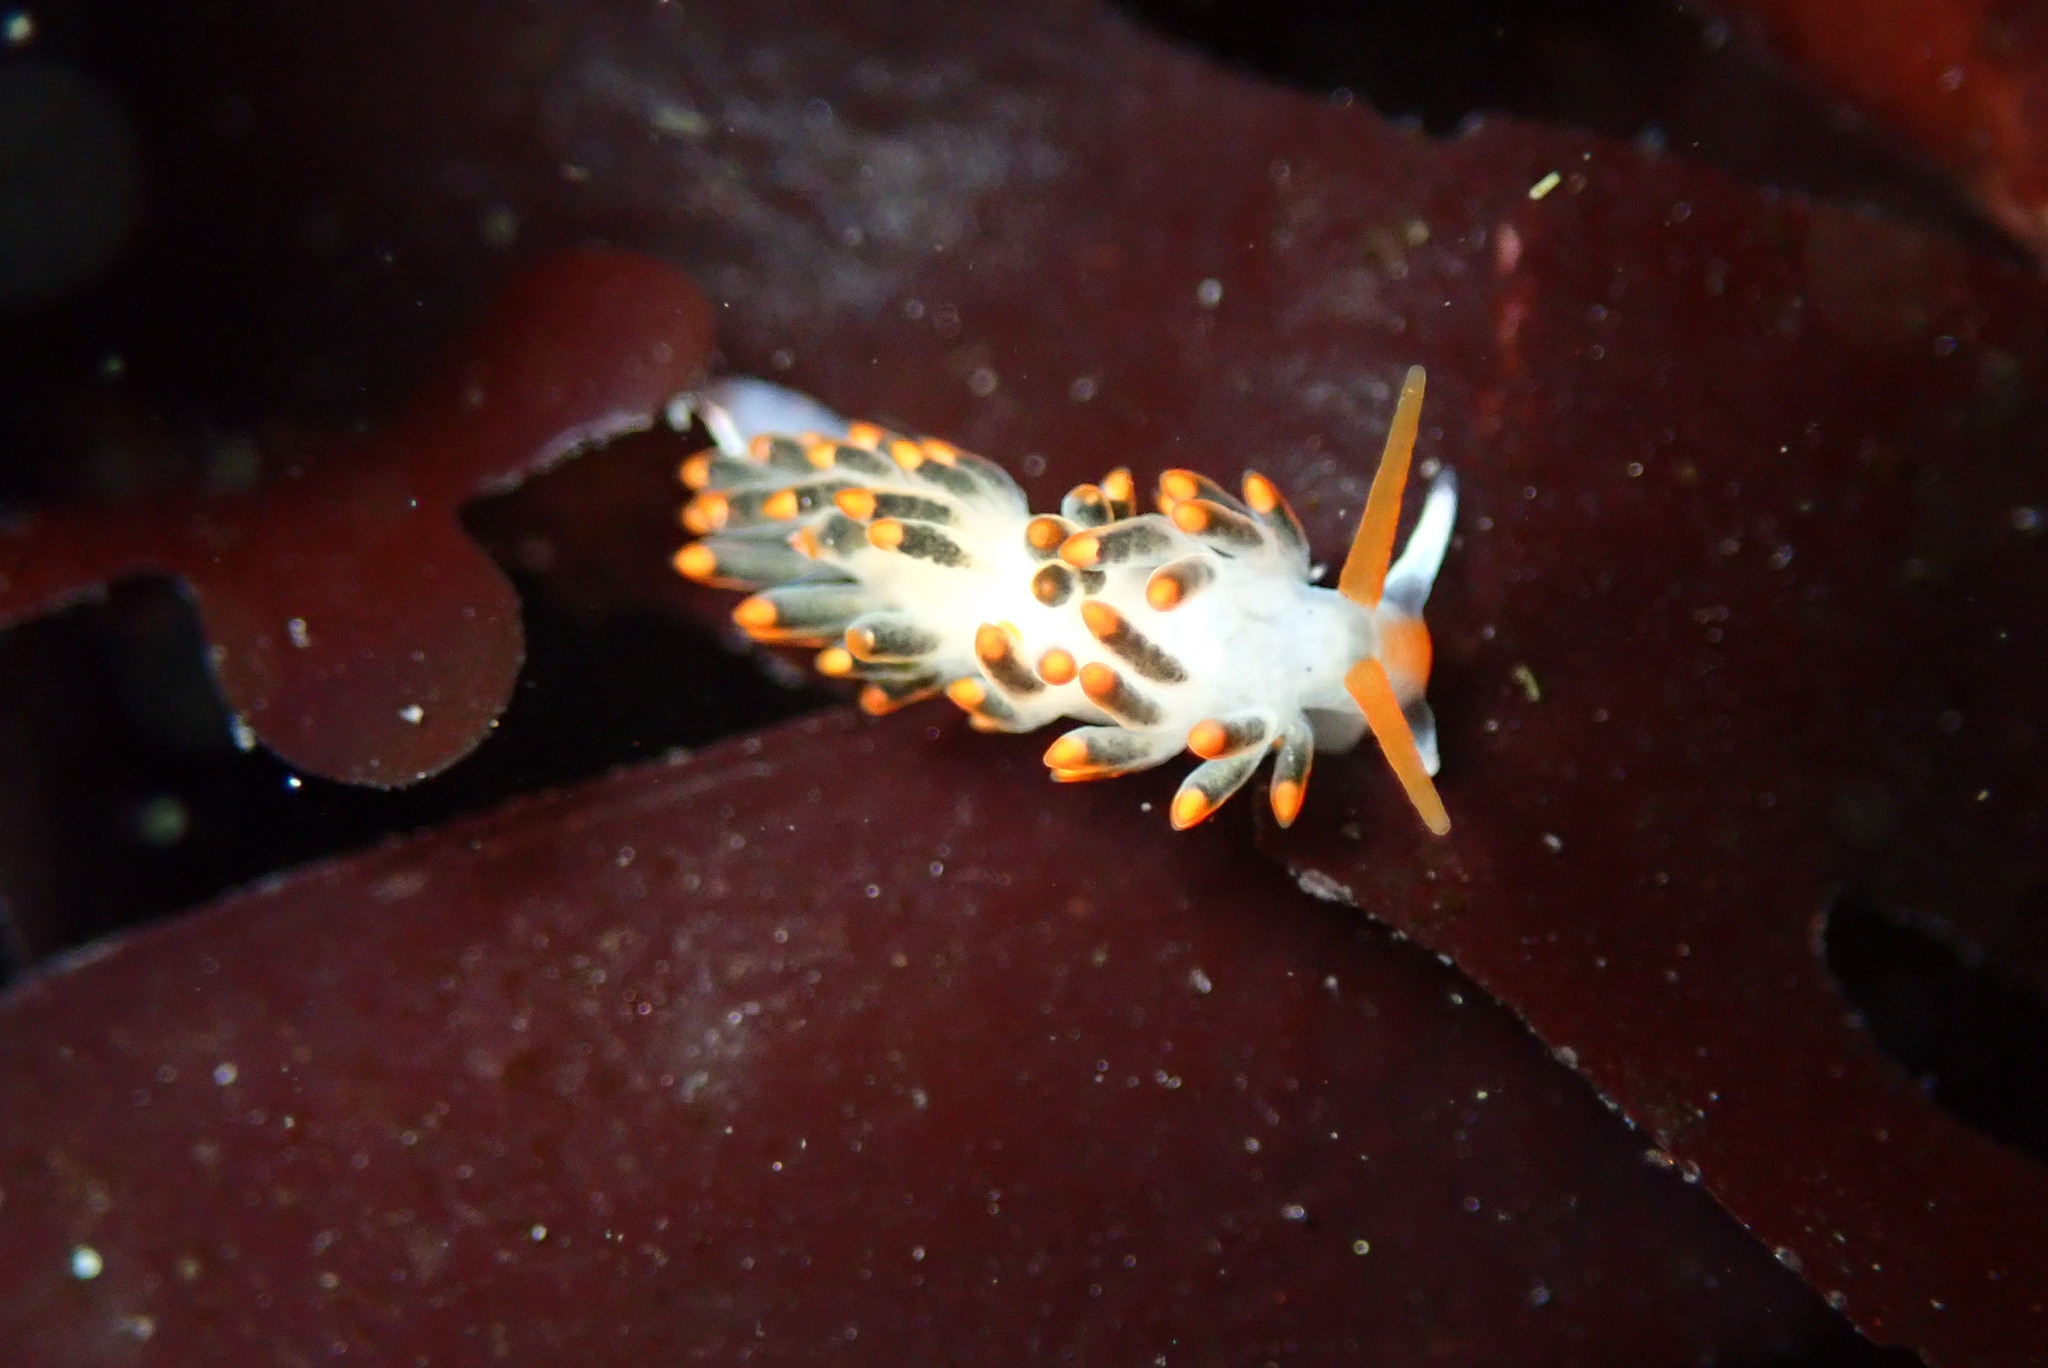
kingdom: Animalia
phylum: Mollusca
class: Gastropoda
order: Nudibranchia
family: Trinchesiidae
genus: Diaphoreolis
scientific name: Diaphoreolis lagunae
